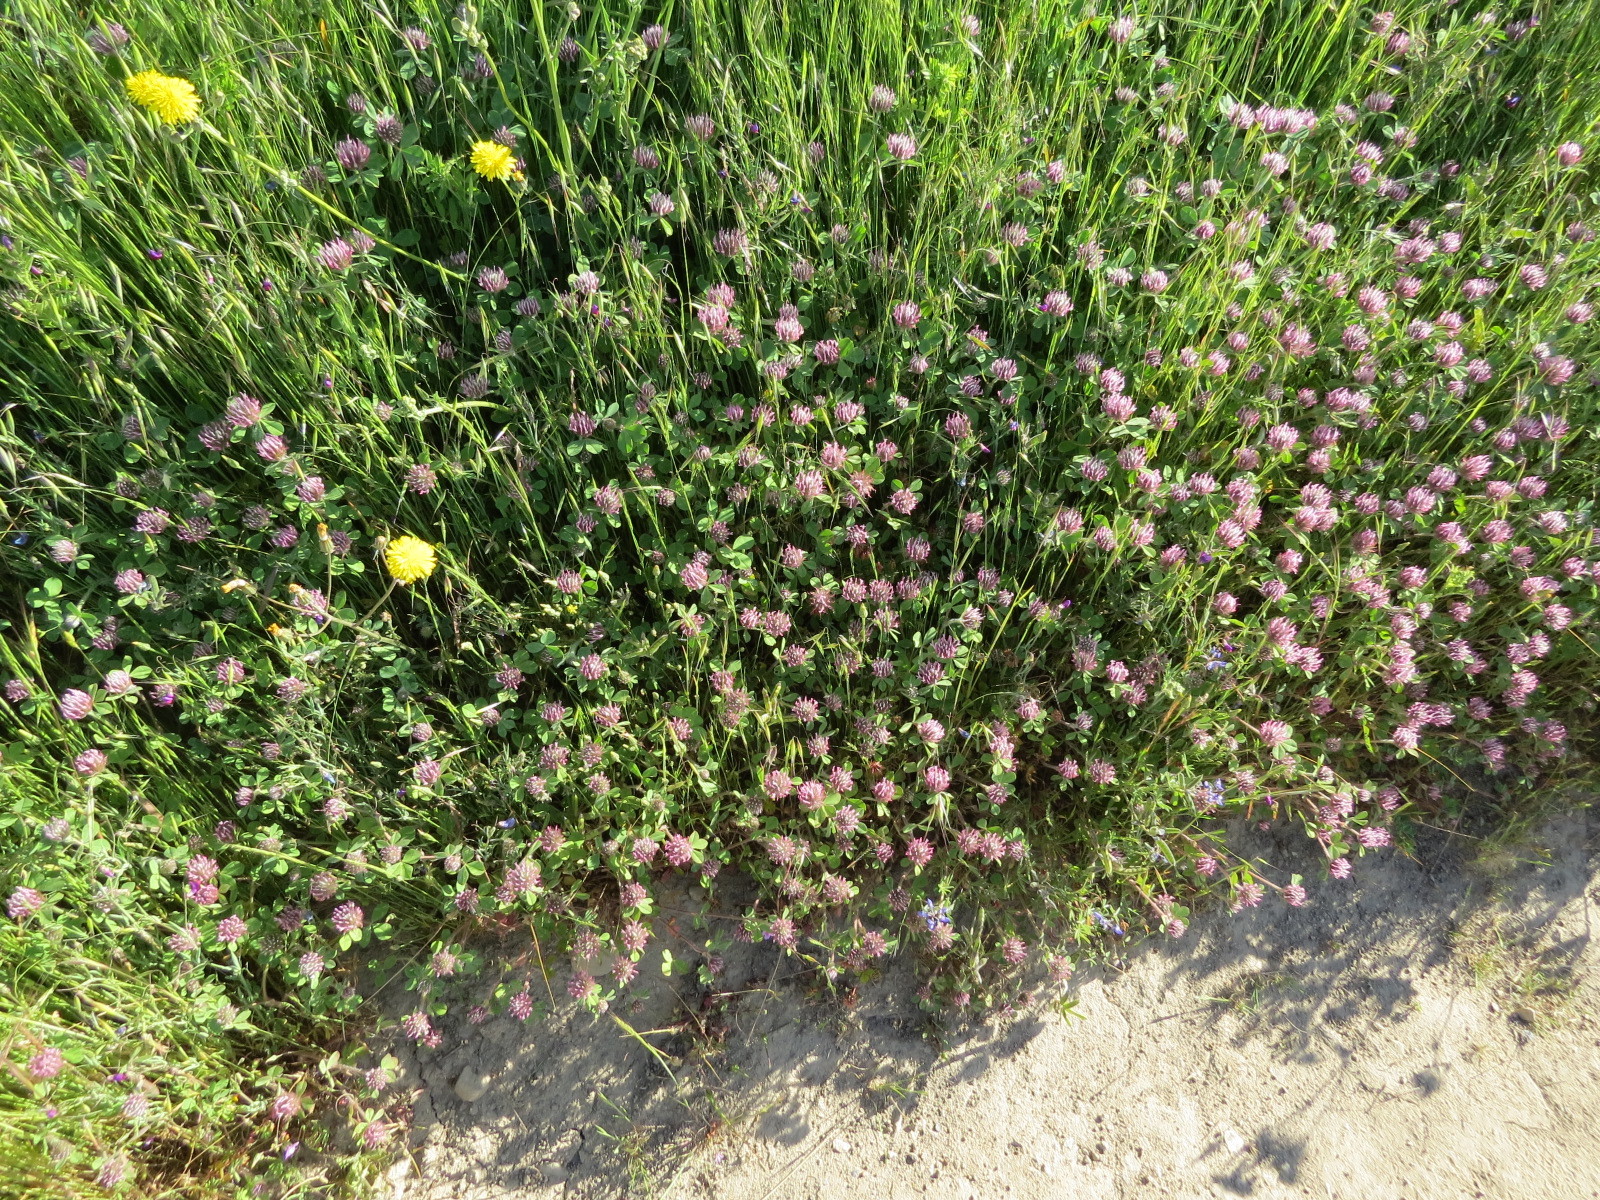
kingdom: Plantae
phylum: Tracheophyta
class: Magnoliopsida
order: Fabales
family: Fabaceae
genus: Trifolium
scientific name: Trifolium hirtum
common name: Rose clover
